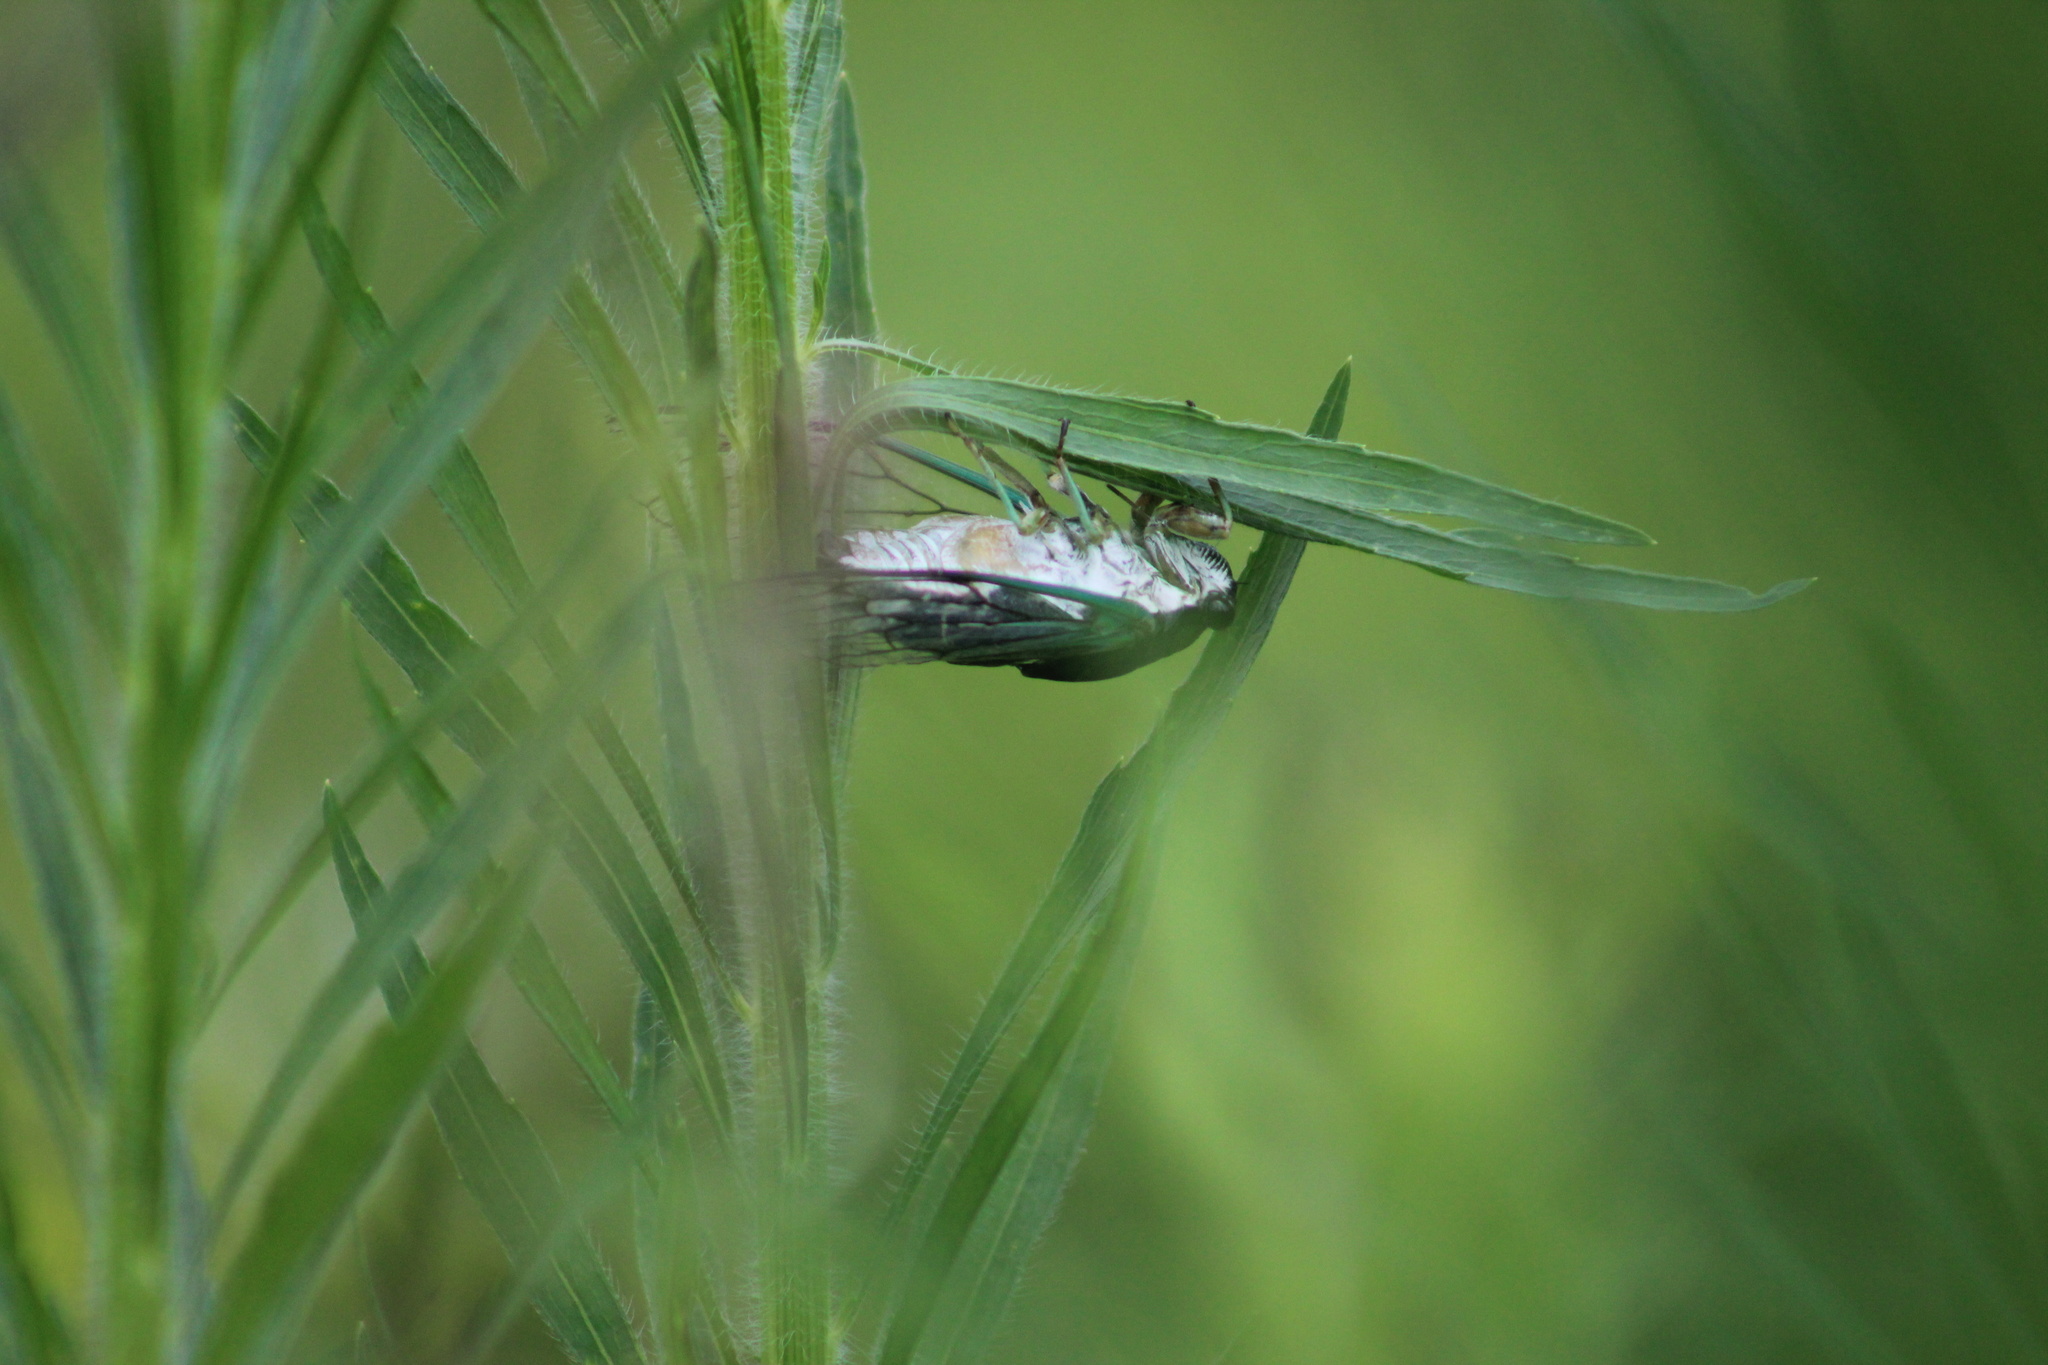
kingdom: Animalia
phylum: Arthropoda
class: Insecta
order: Hemiptera
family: Cicadidae
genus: Neotibicen
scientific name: Neotibicen tibicen
